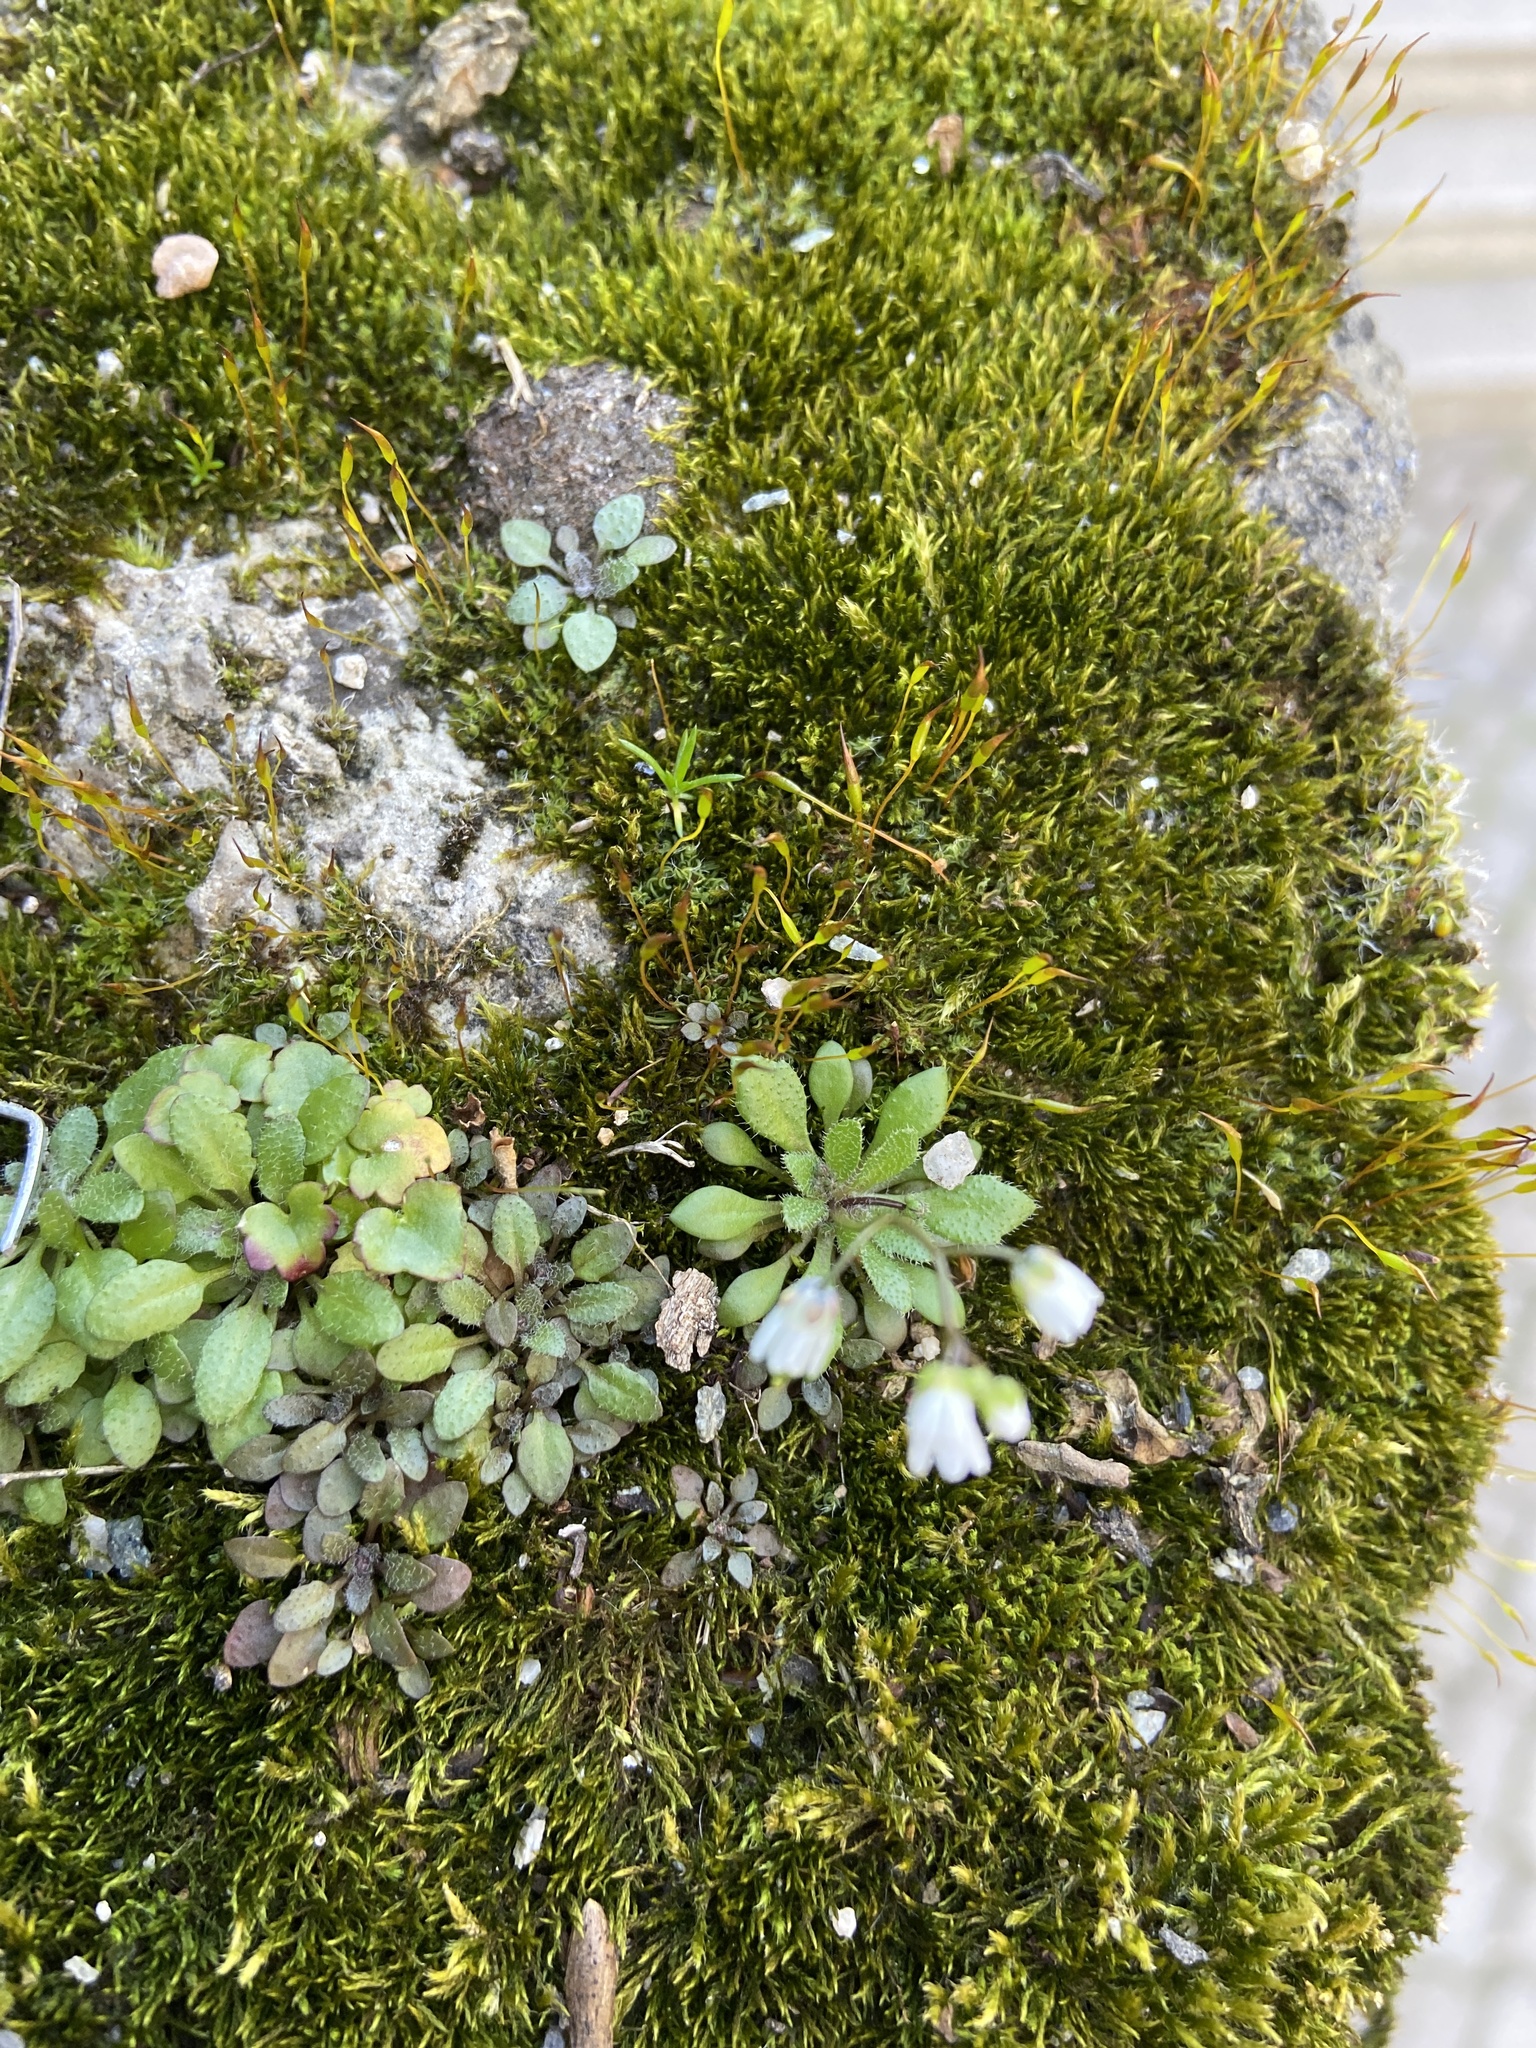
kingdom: Plantae
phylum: Tracheophyta
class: Magnoliopsida
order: Brassicales
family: Brassicaceae
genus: Draba
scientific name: Draba verna
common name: Spring draba
